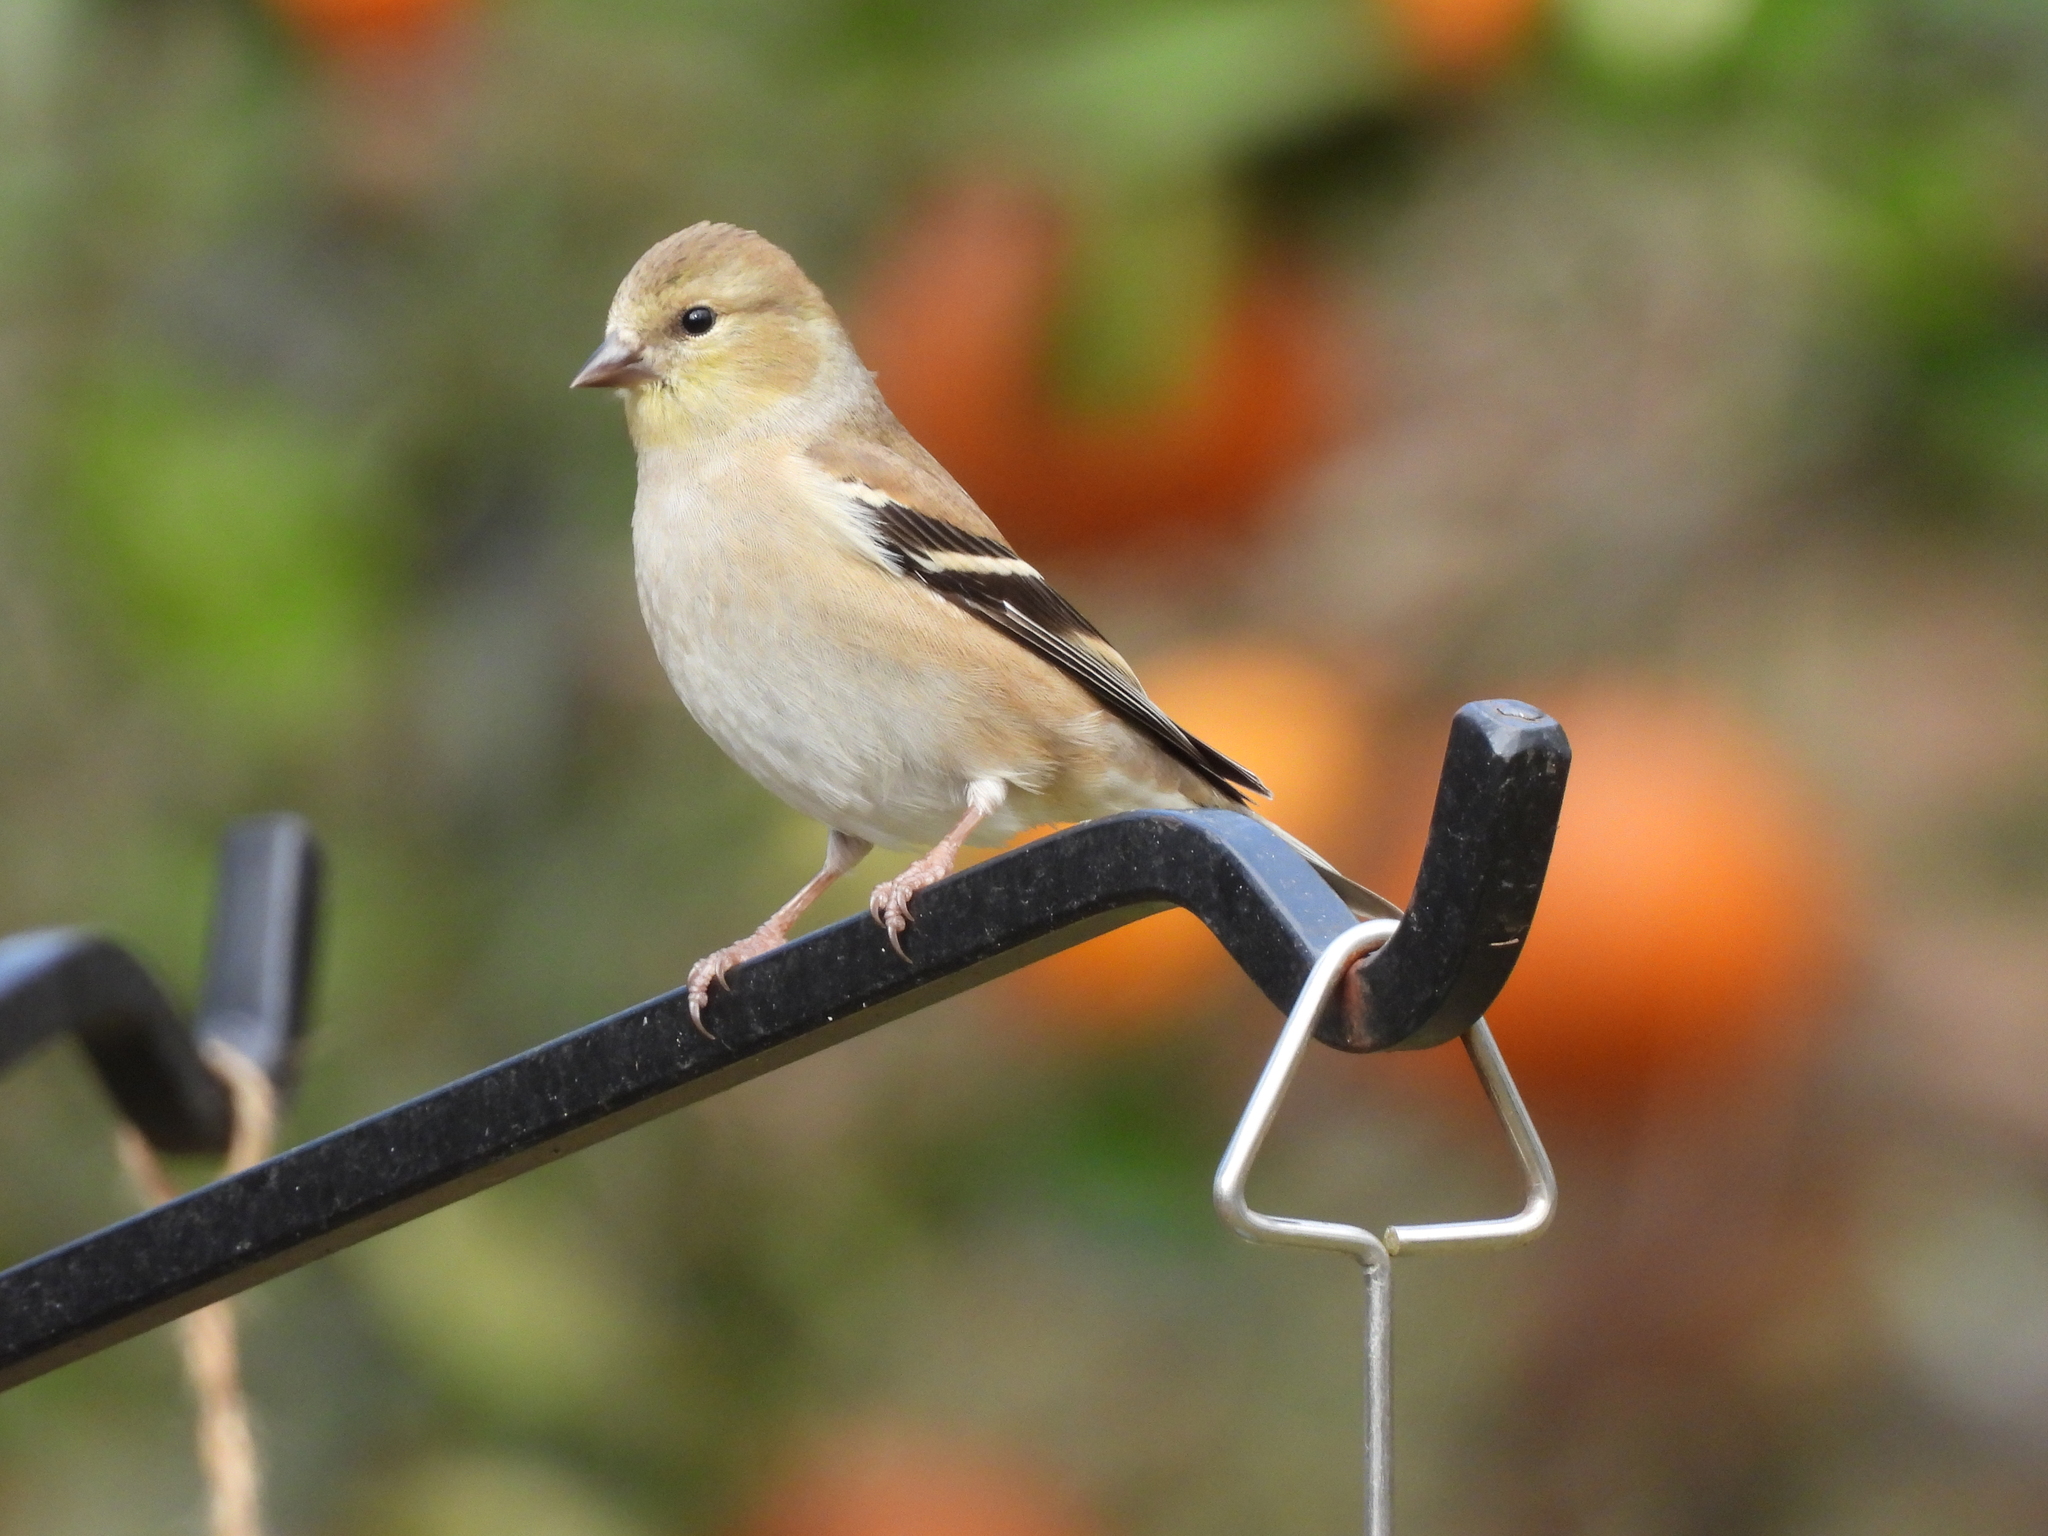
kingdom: Animalia
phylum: Chordata
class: Aves
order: Passeriformes
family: Fringillidae
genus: Spinus
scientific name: Spinus tristis
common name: American goldfinch
